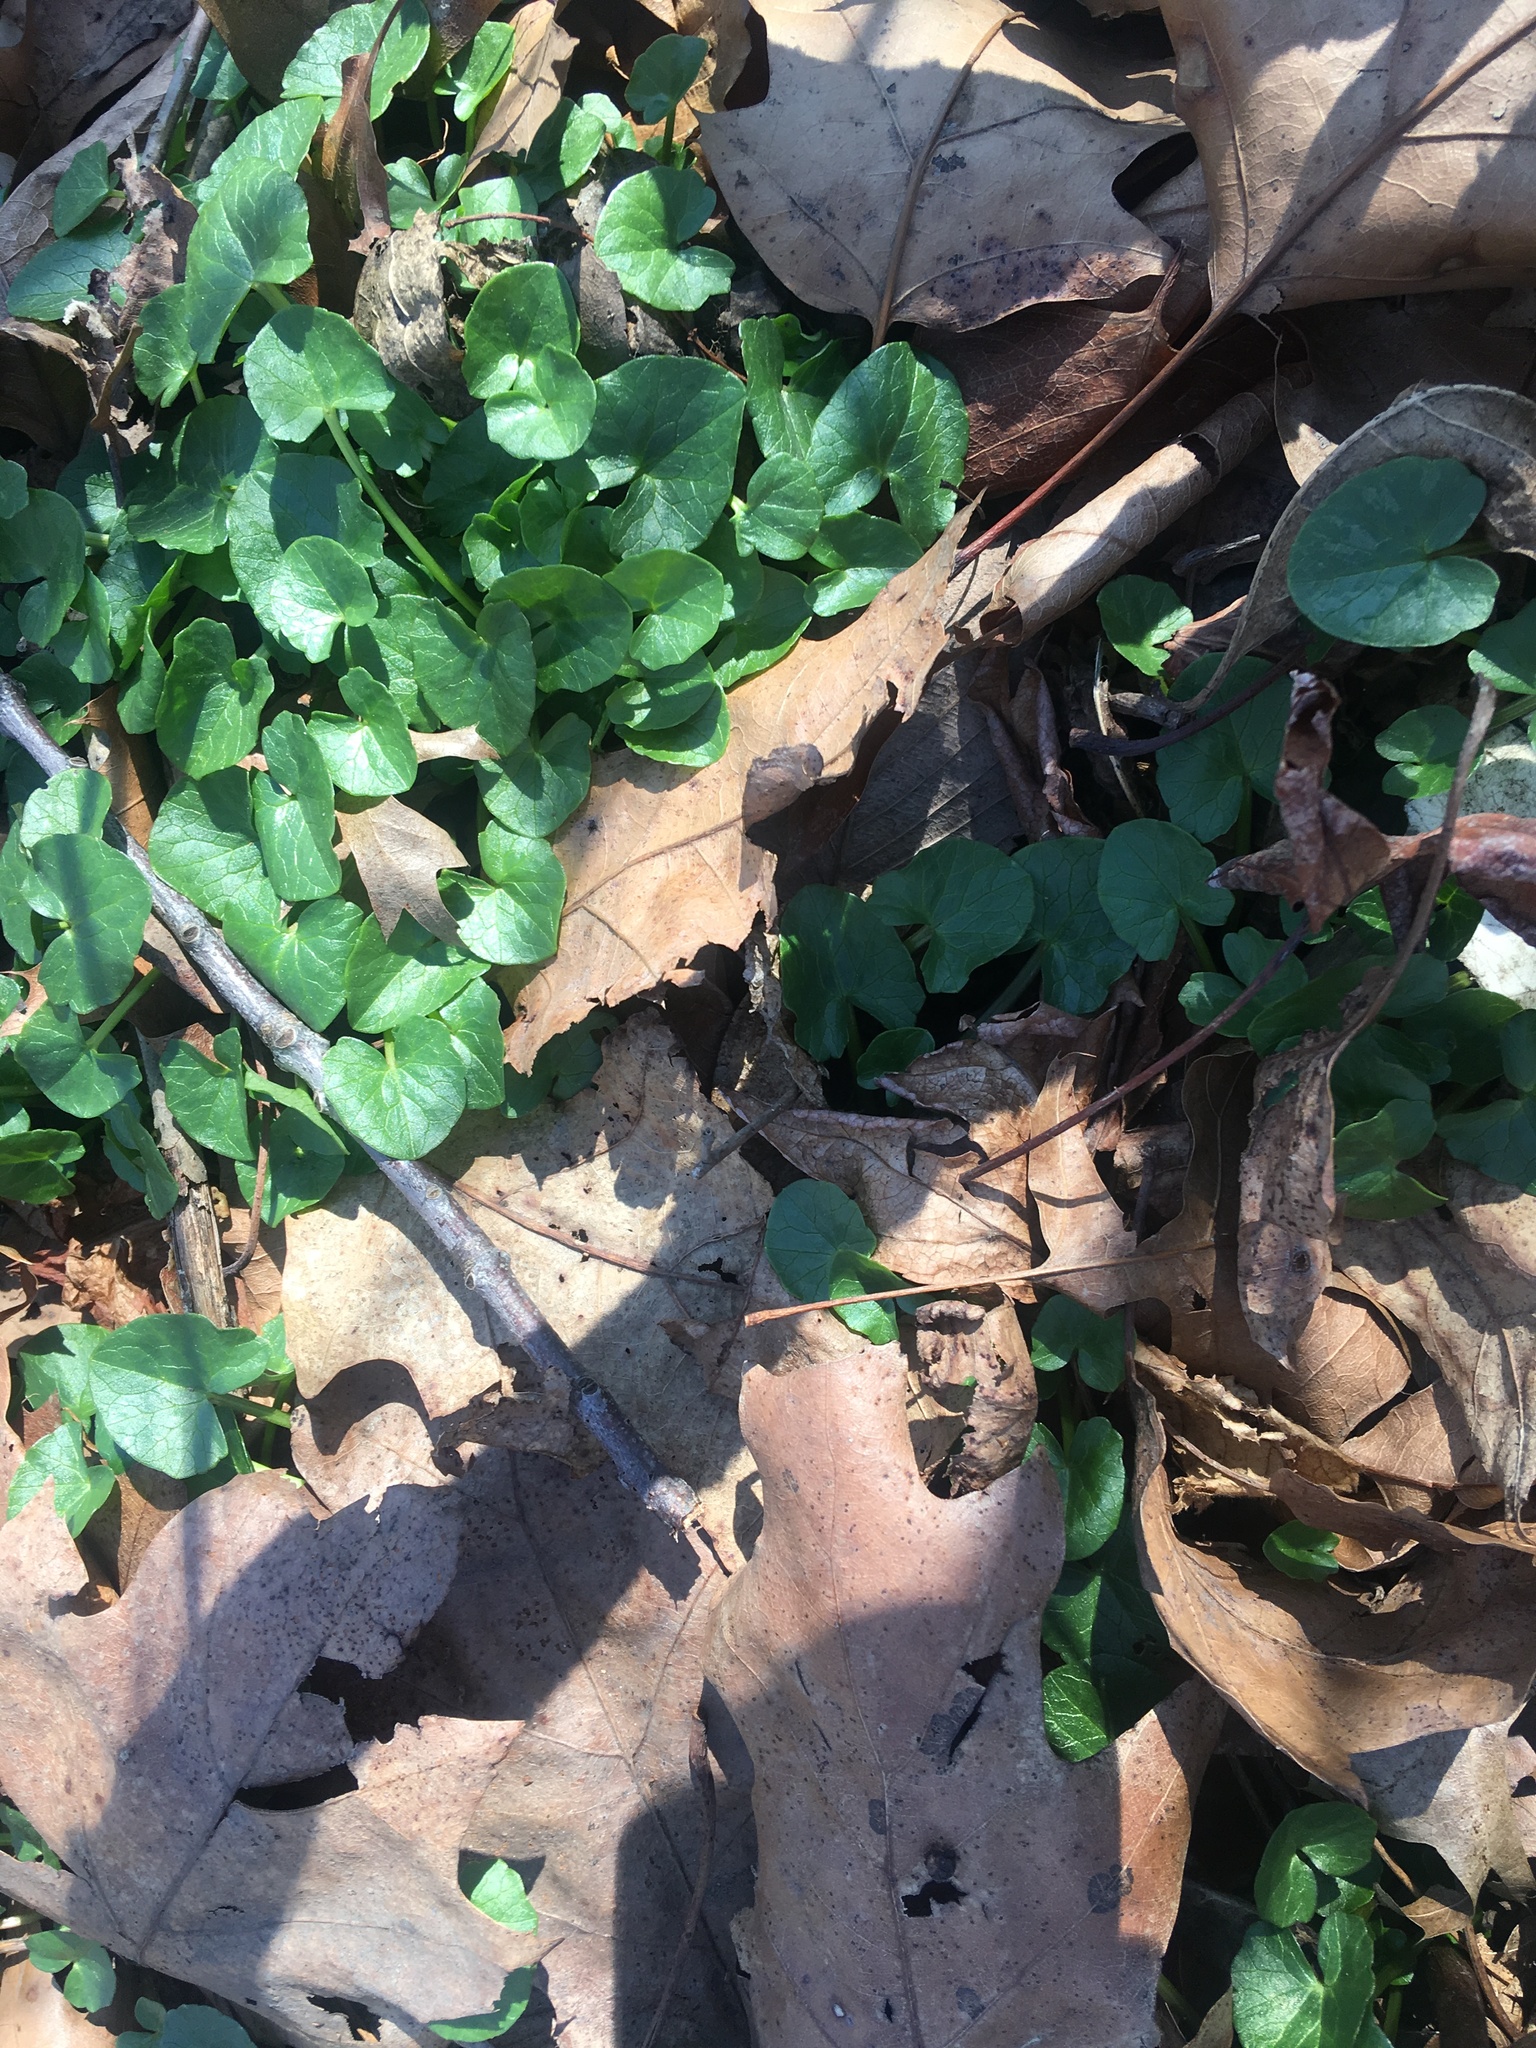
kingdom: Plantae
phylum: Tracheophyta
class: Magnoliopsida
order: Ranunculales
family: Ranunculaceae
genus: Ficaria
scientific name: Ficaria verna
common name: Lesser celandine
